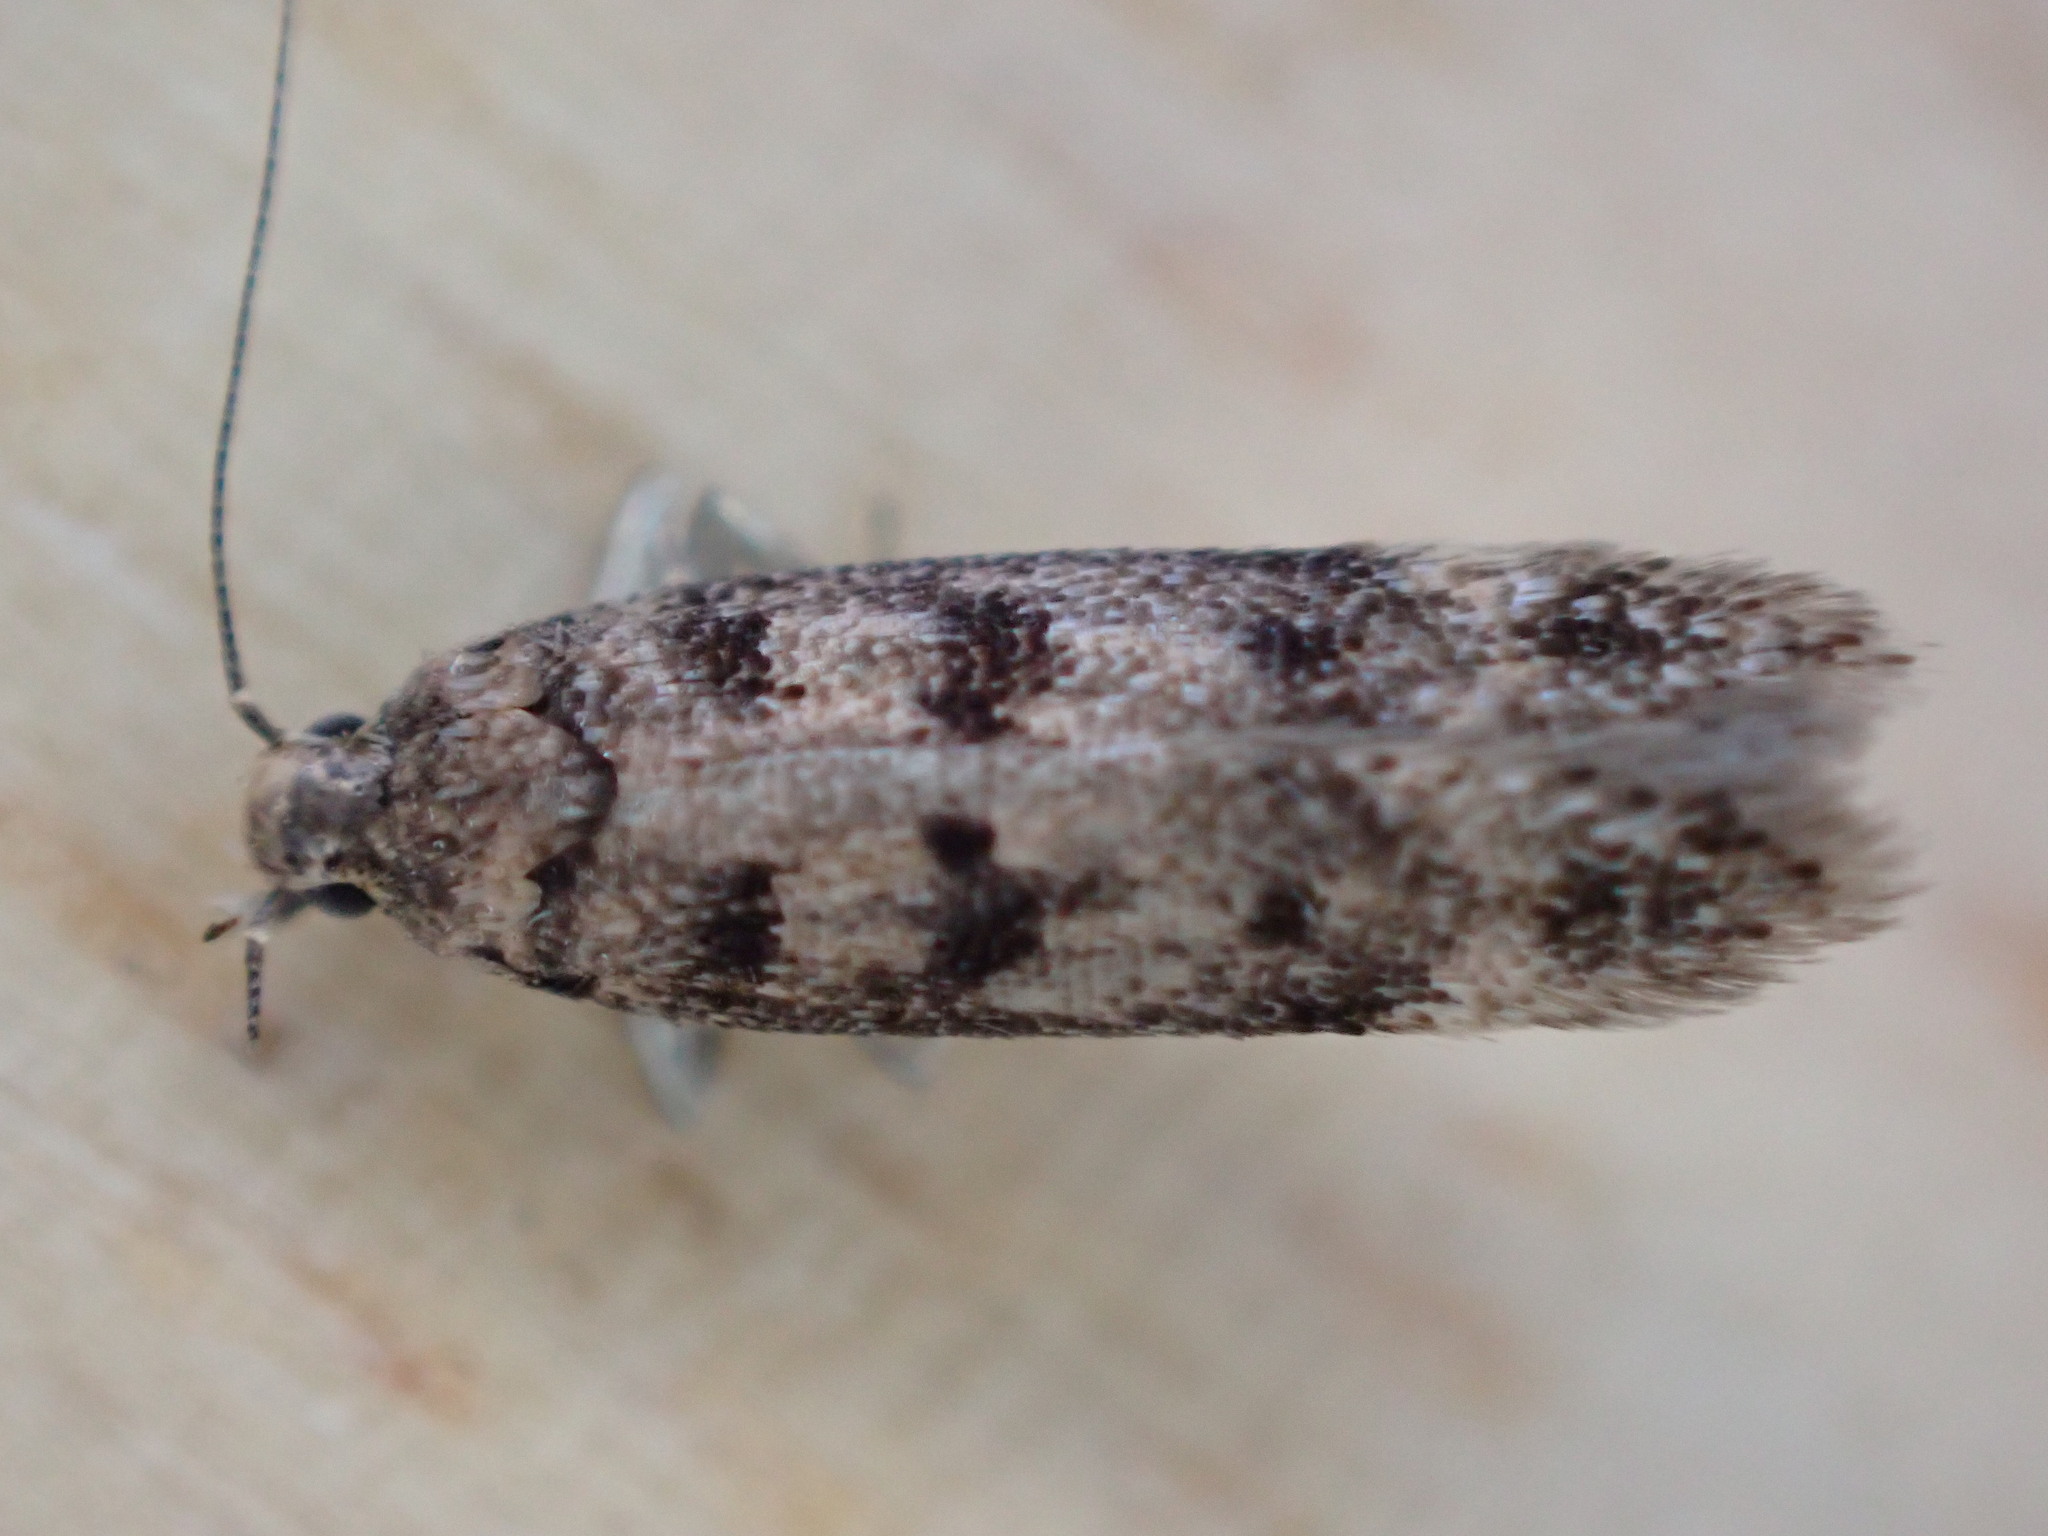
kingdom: Animalia
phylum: Arthropoda
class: Insecta
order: Lepidoptera
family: Gelechiidae
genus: Bryotropha
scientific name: Bryotropha domestica
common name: House groundling
